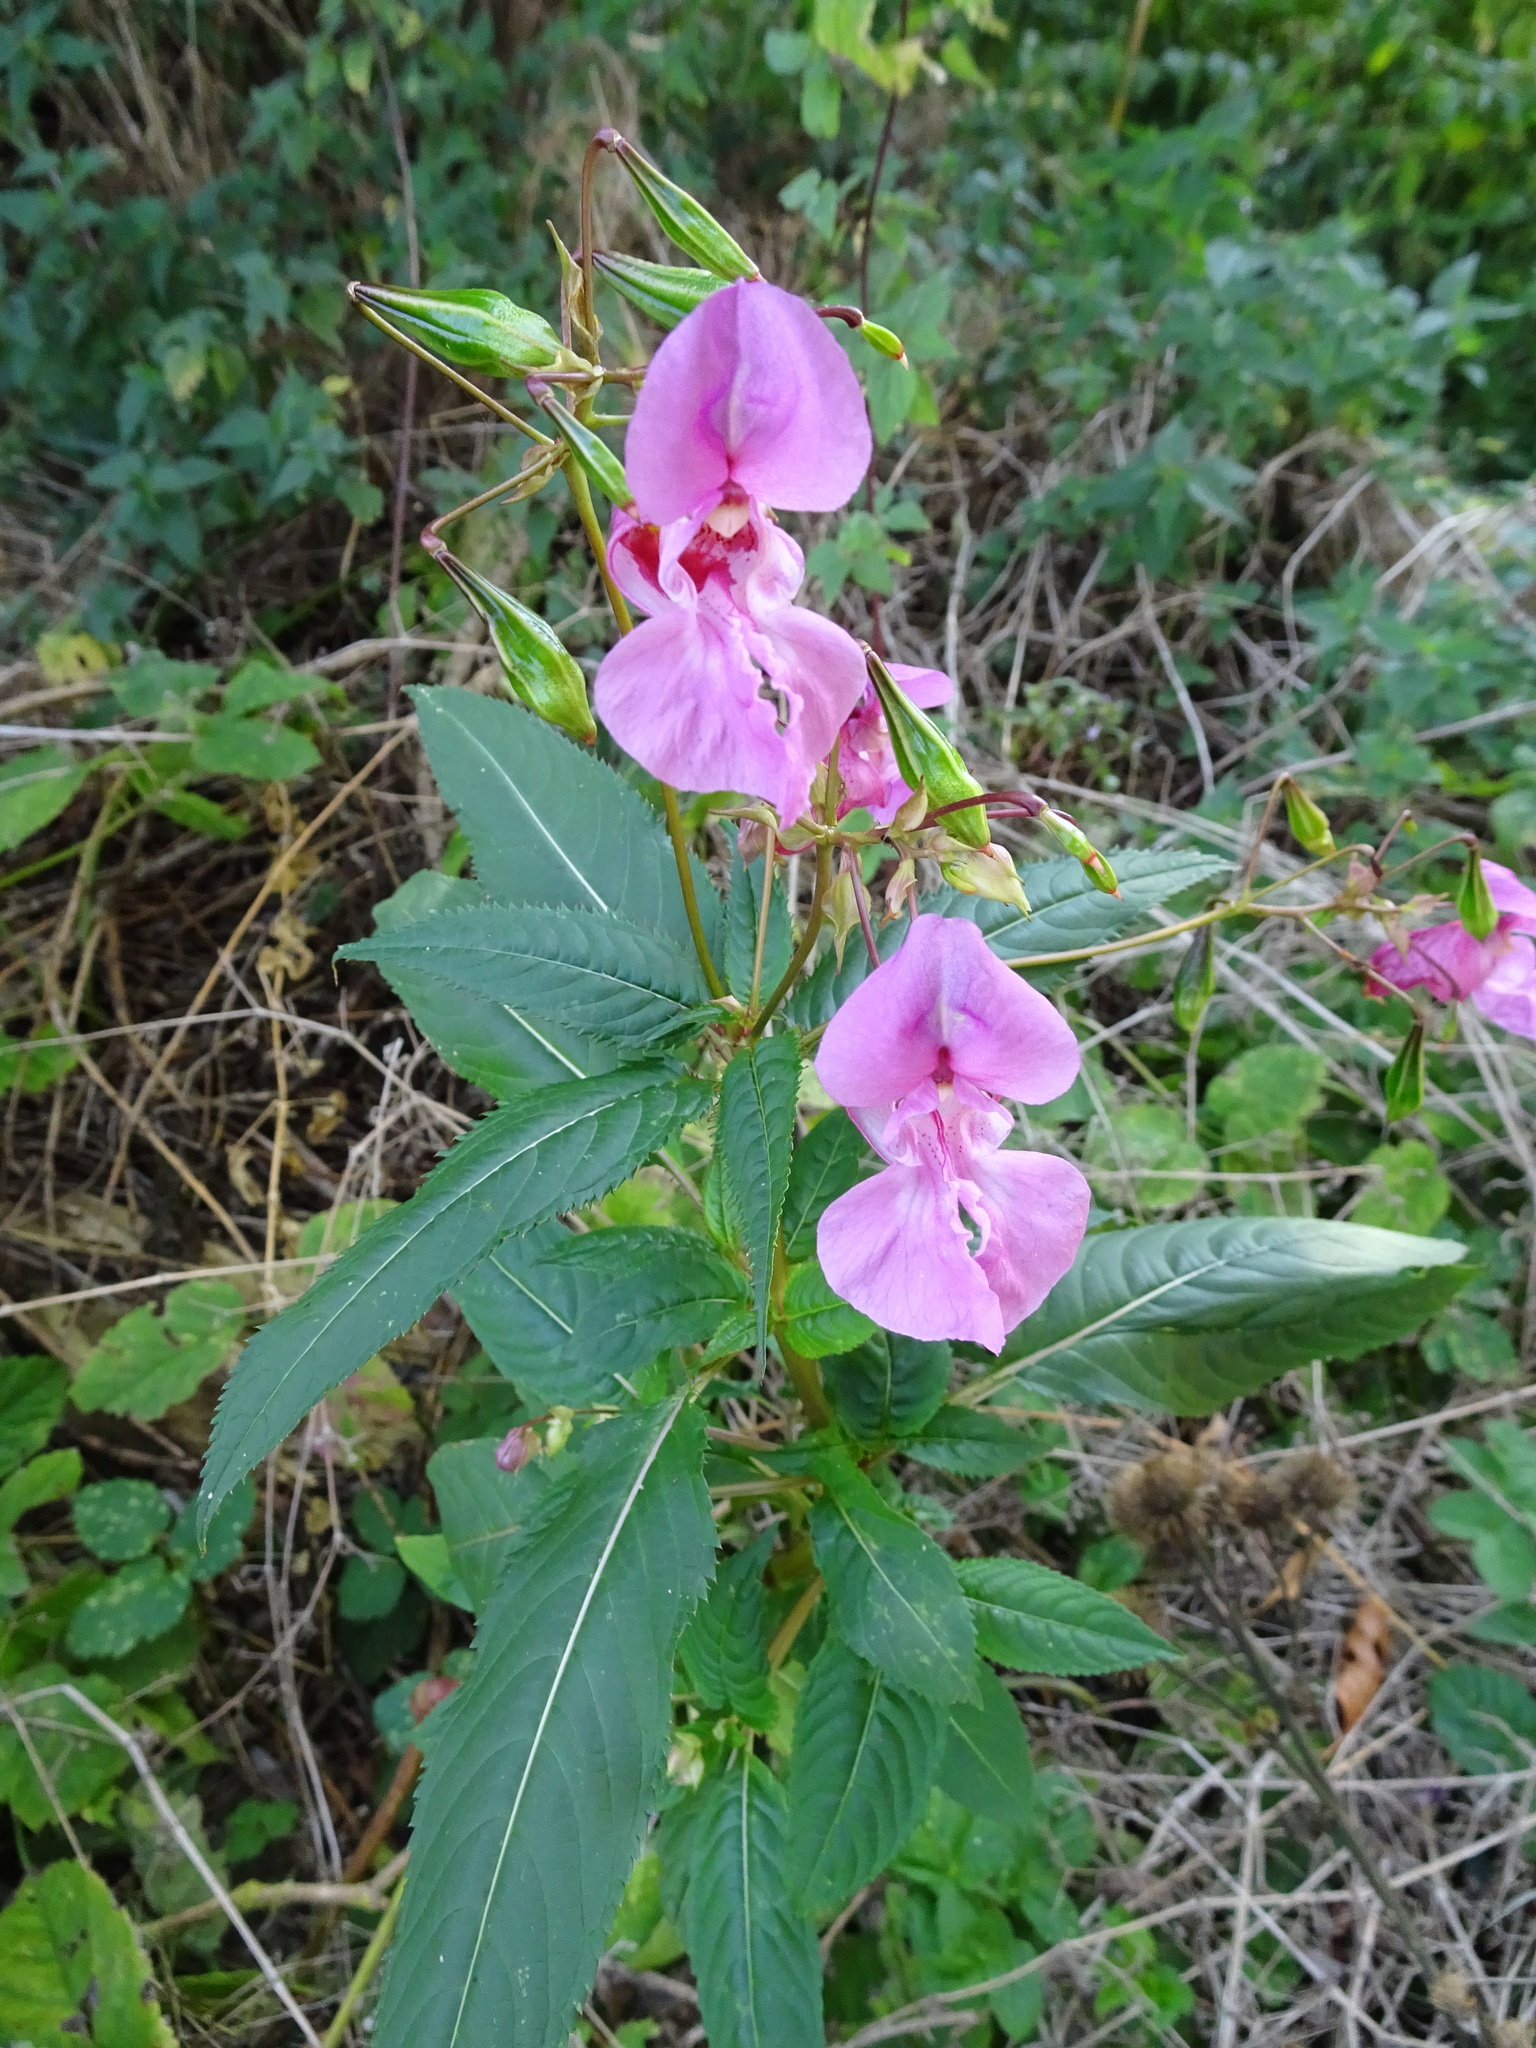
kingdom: Plantae
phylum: Tracheophyta
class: Magnoliopsida
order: Ericales
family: Balsaminaceae
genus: Impatiens
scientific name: Impatiens glandulifera
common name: Himalayan balsam
